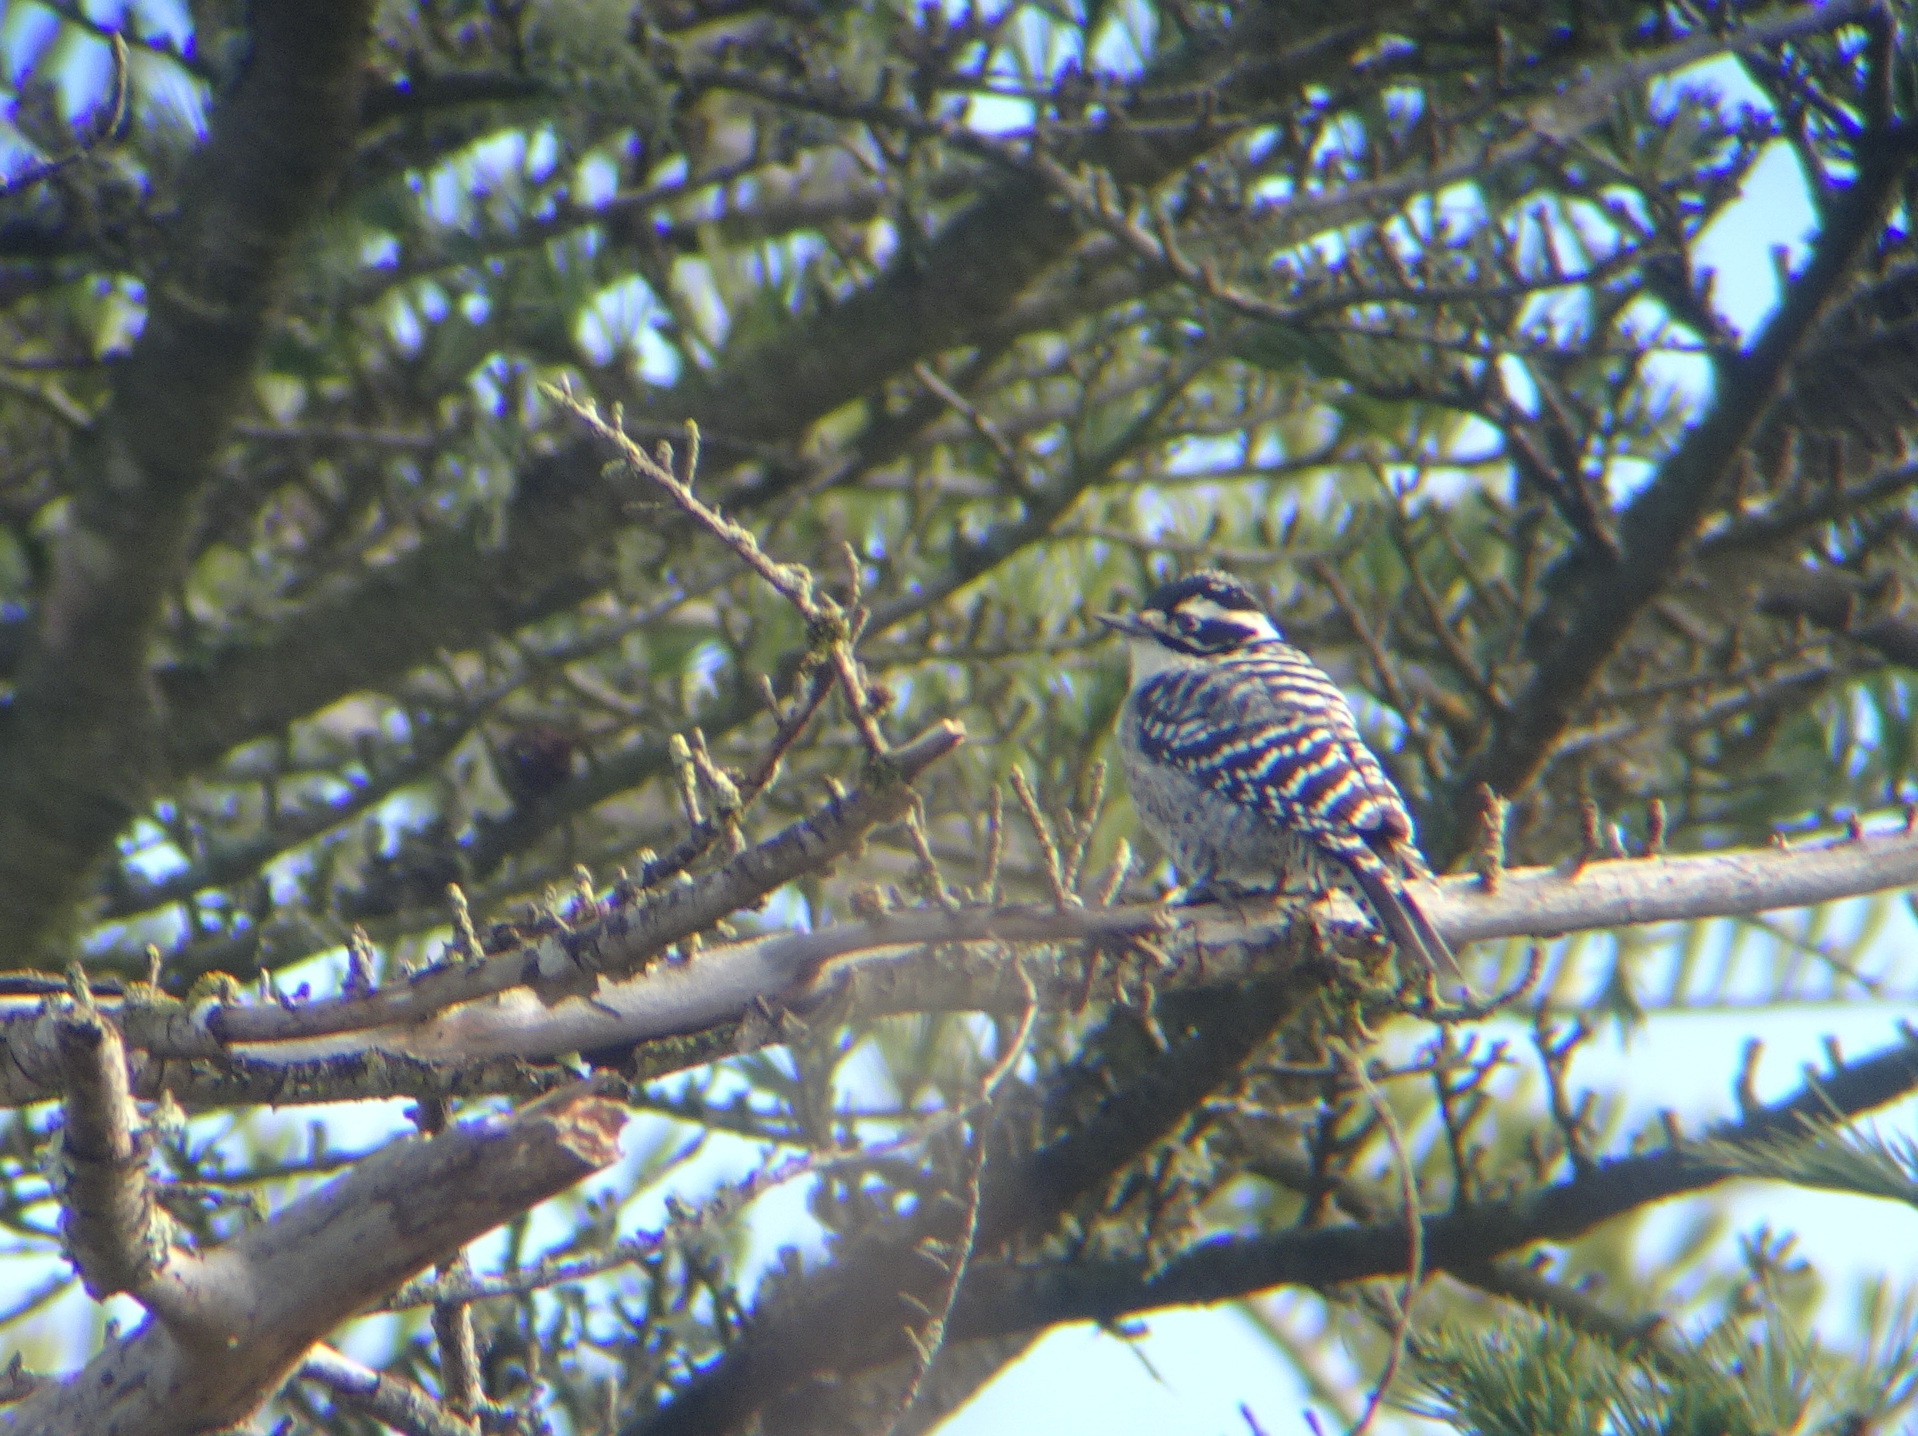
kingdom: Animalia
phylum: Chordata
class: Aves
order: Piciformes
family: Picidae
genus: Dryobates
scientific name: Dryobates nuttallii
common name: Nuttall's woodpecker
